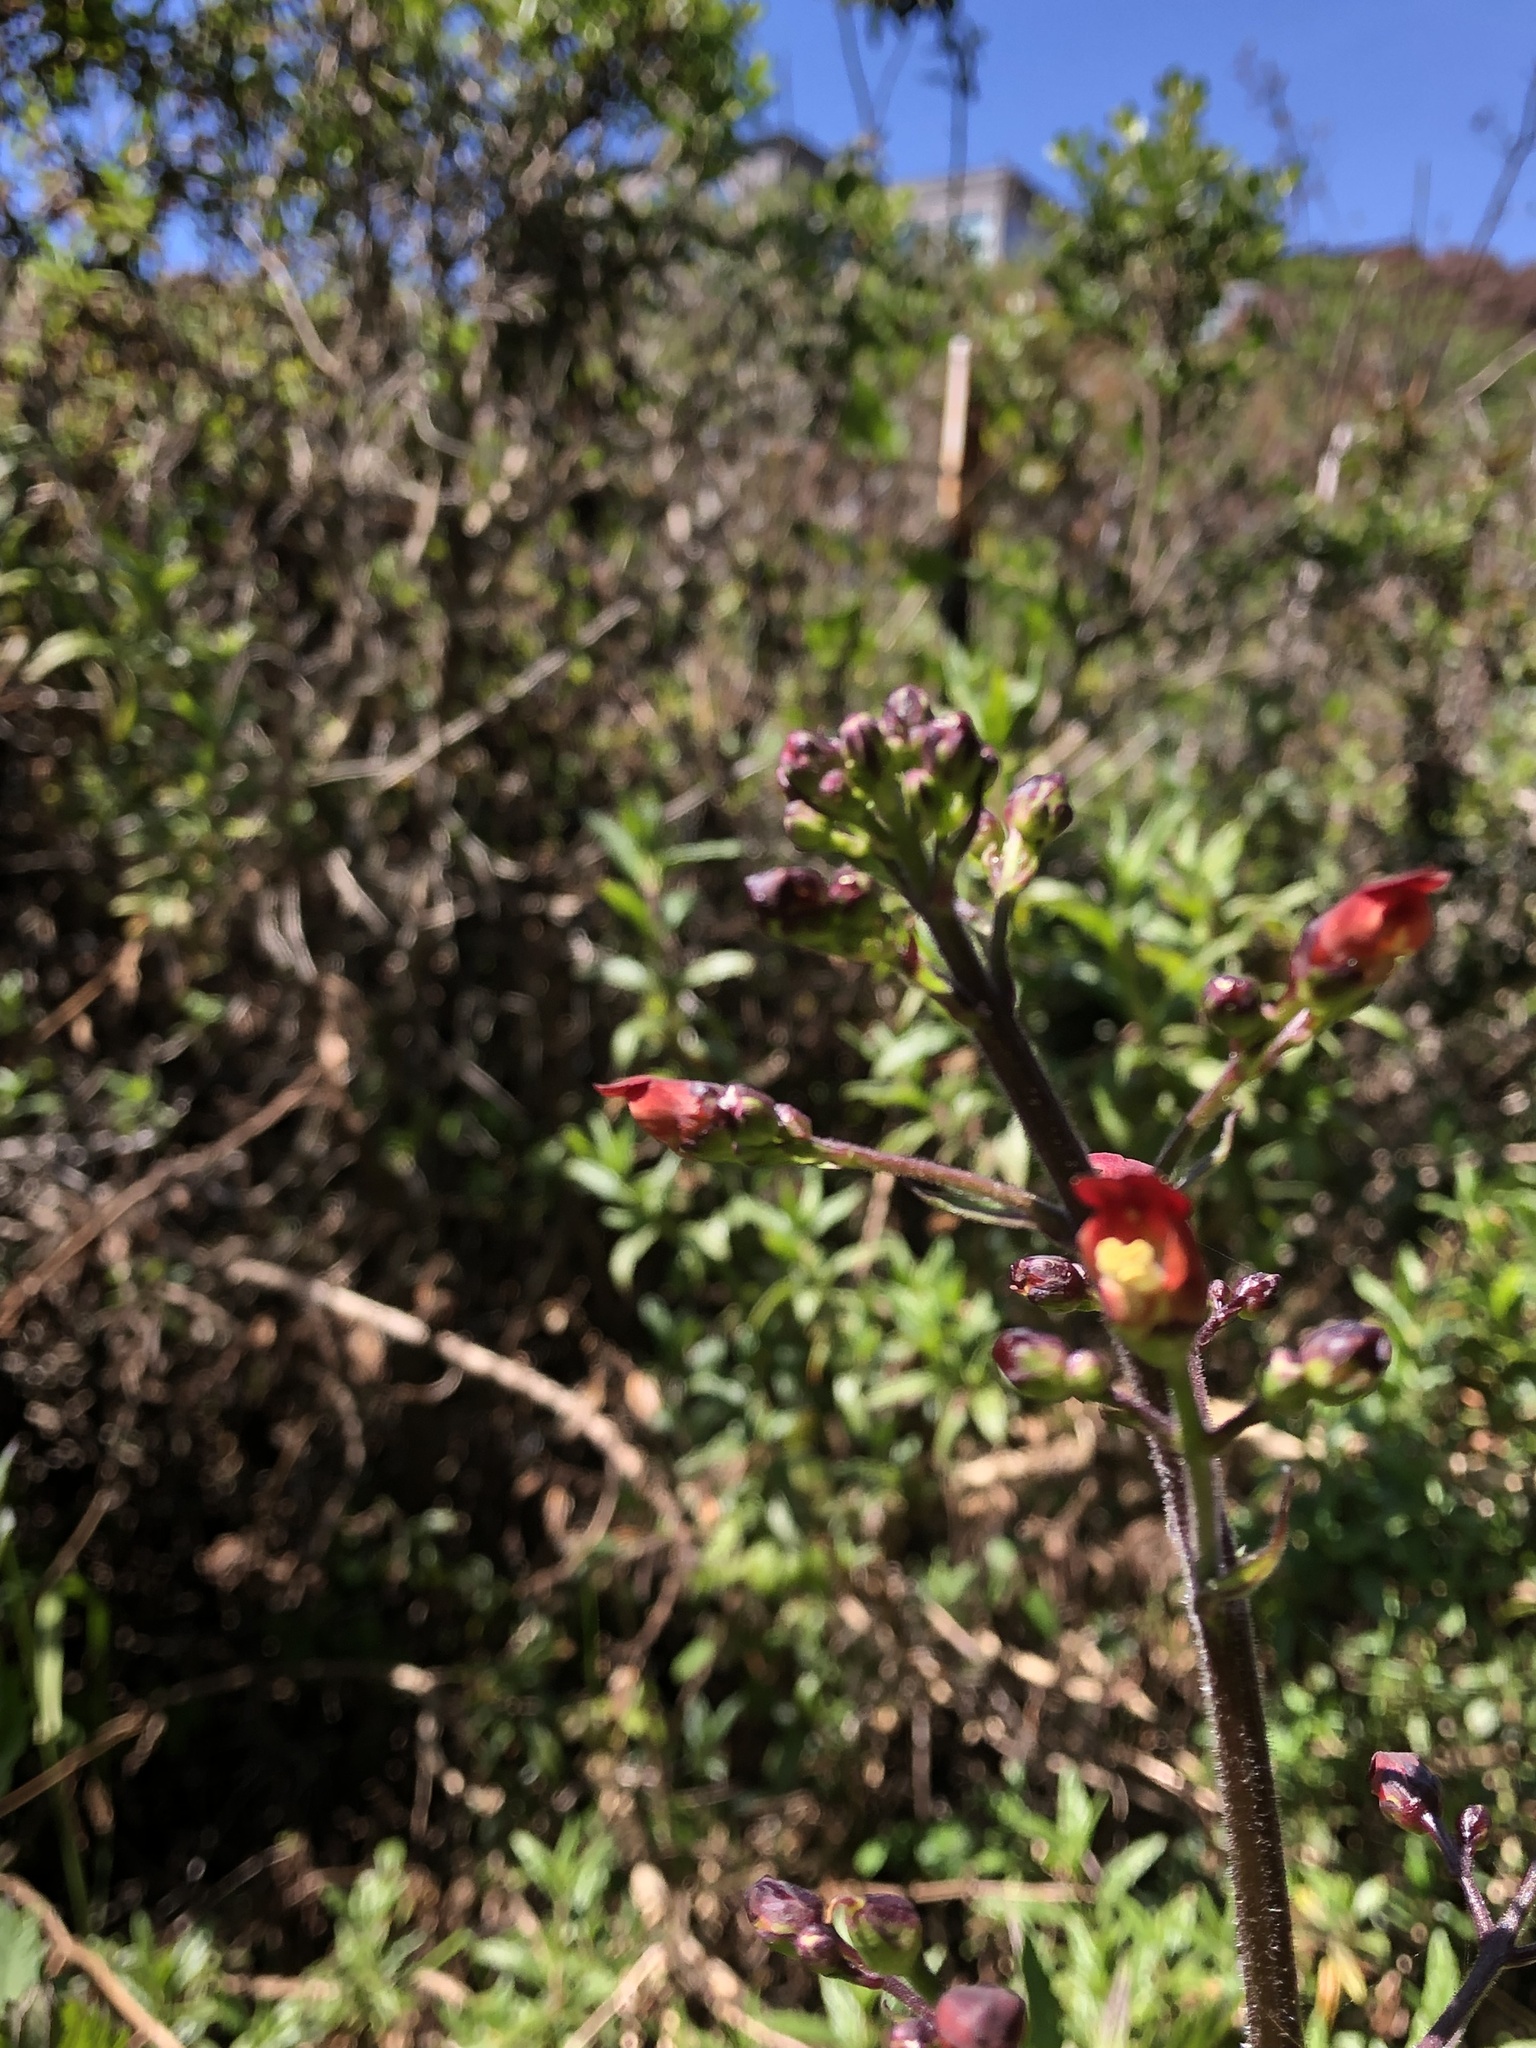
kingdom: Plantae
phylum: Tracheophyta
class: Magnoliopsida
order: Lamiales
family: Scrophulariaceae
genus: Scrophularia
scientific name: Scrophularia californica
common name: California figwort
